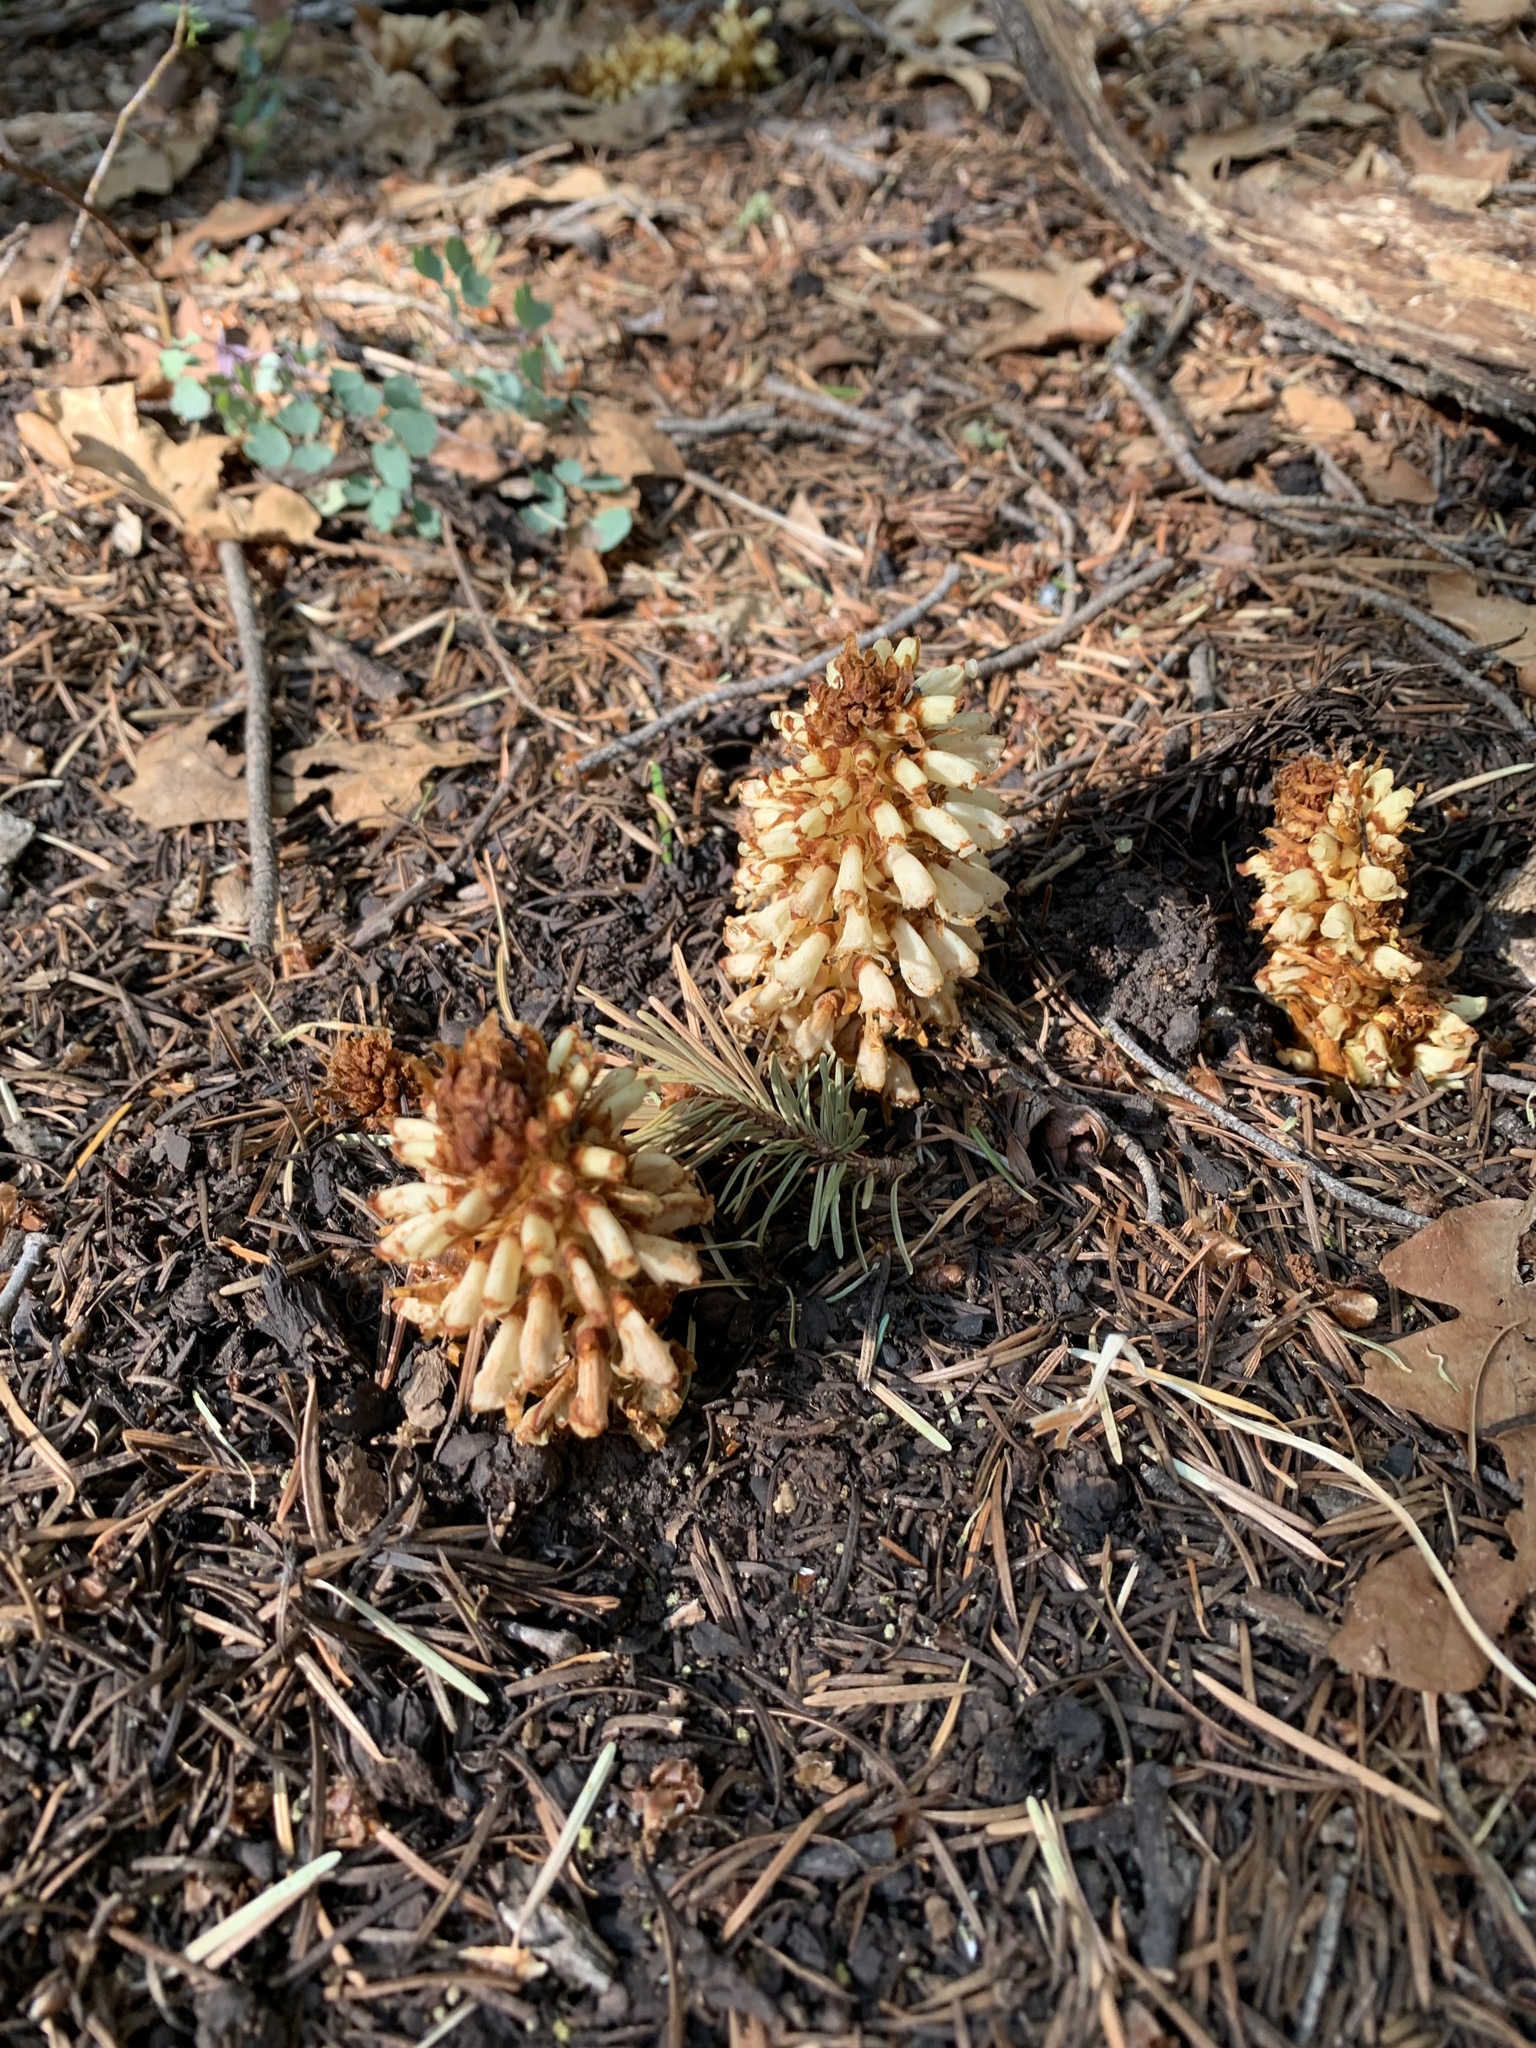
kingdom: Plantae
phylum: Tracheophyta
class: Magnoliopsida
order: Lamiales
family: Orobanchaceae
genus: Conopholis
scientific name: Conopholis alpina
